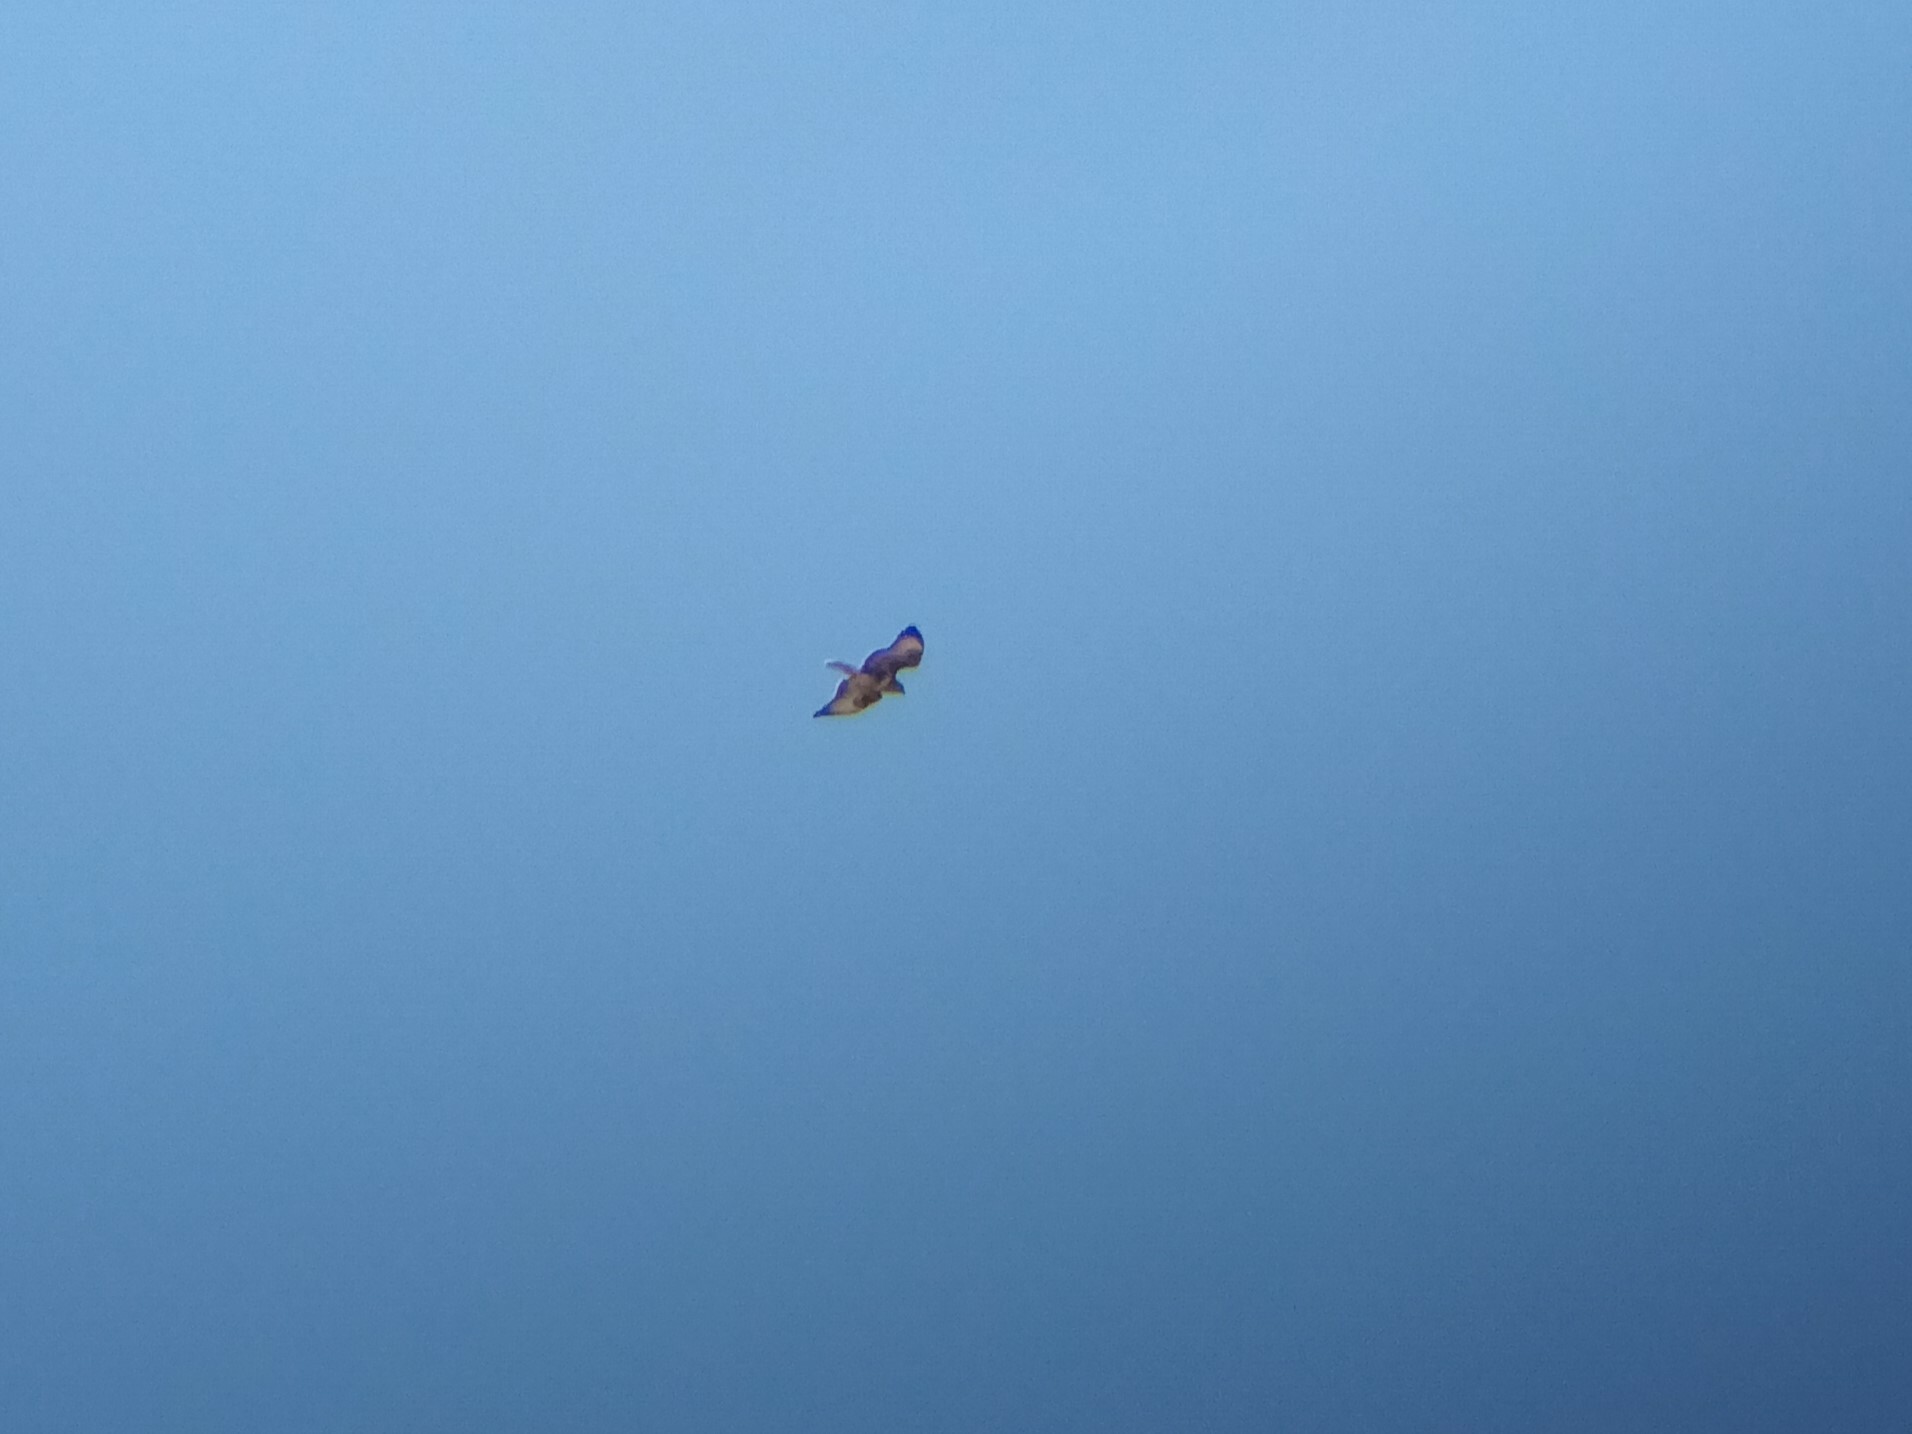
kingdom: Animalia
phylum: Chordata
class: Aves
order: Accipitriformes
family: Accipitridae
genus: Buteo
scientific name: Buteo buteo
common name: Common buzzard
